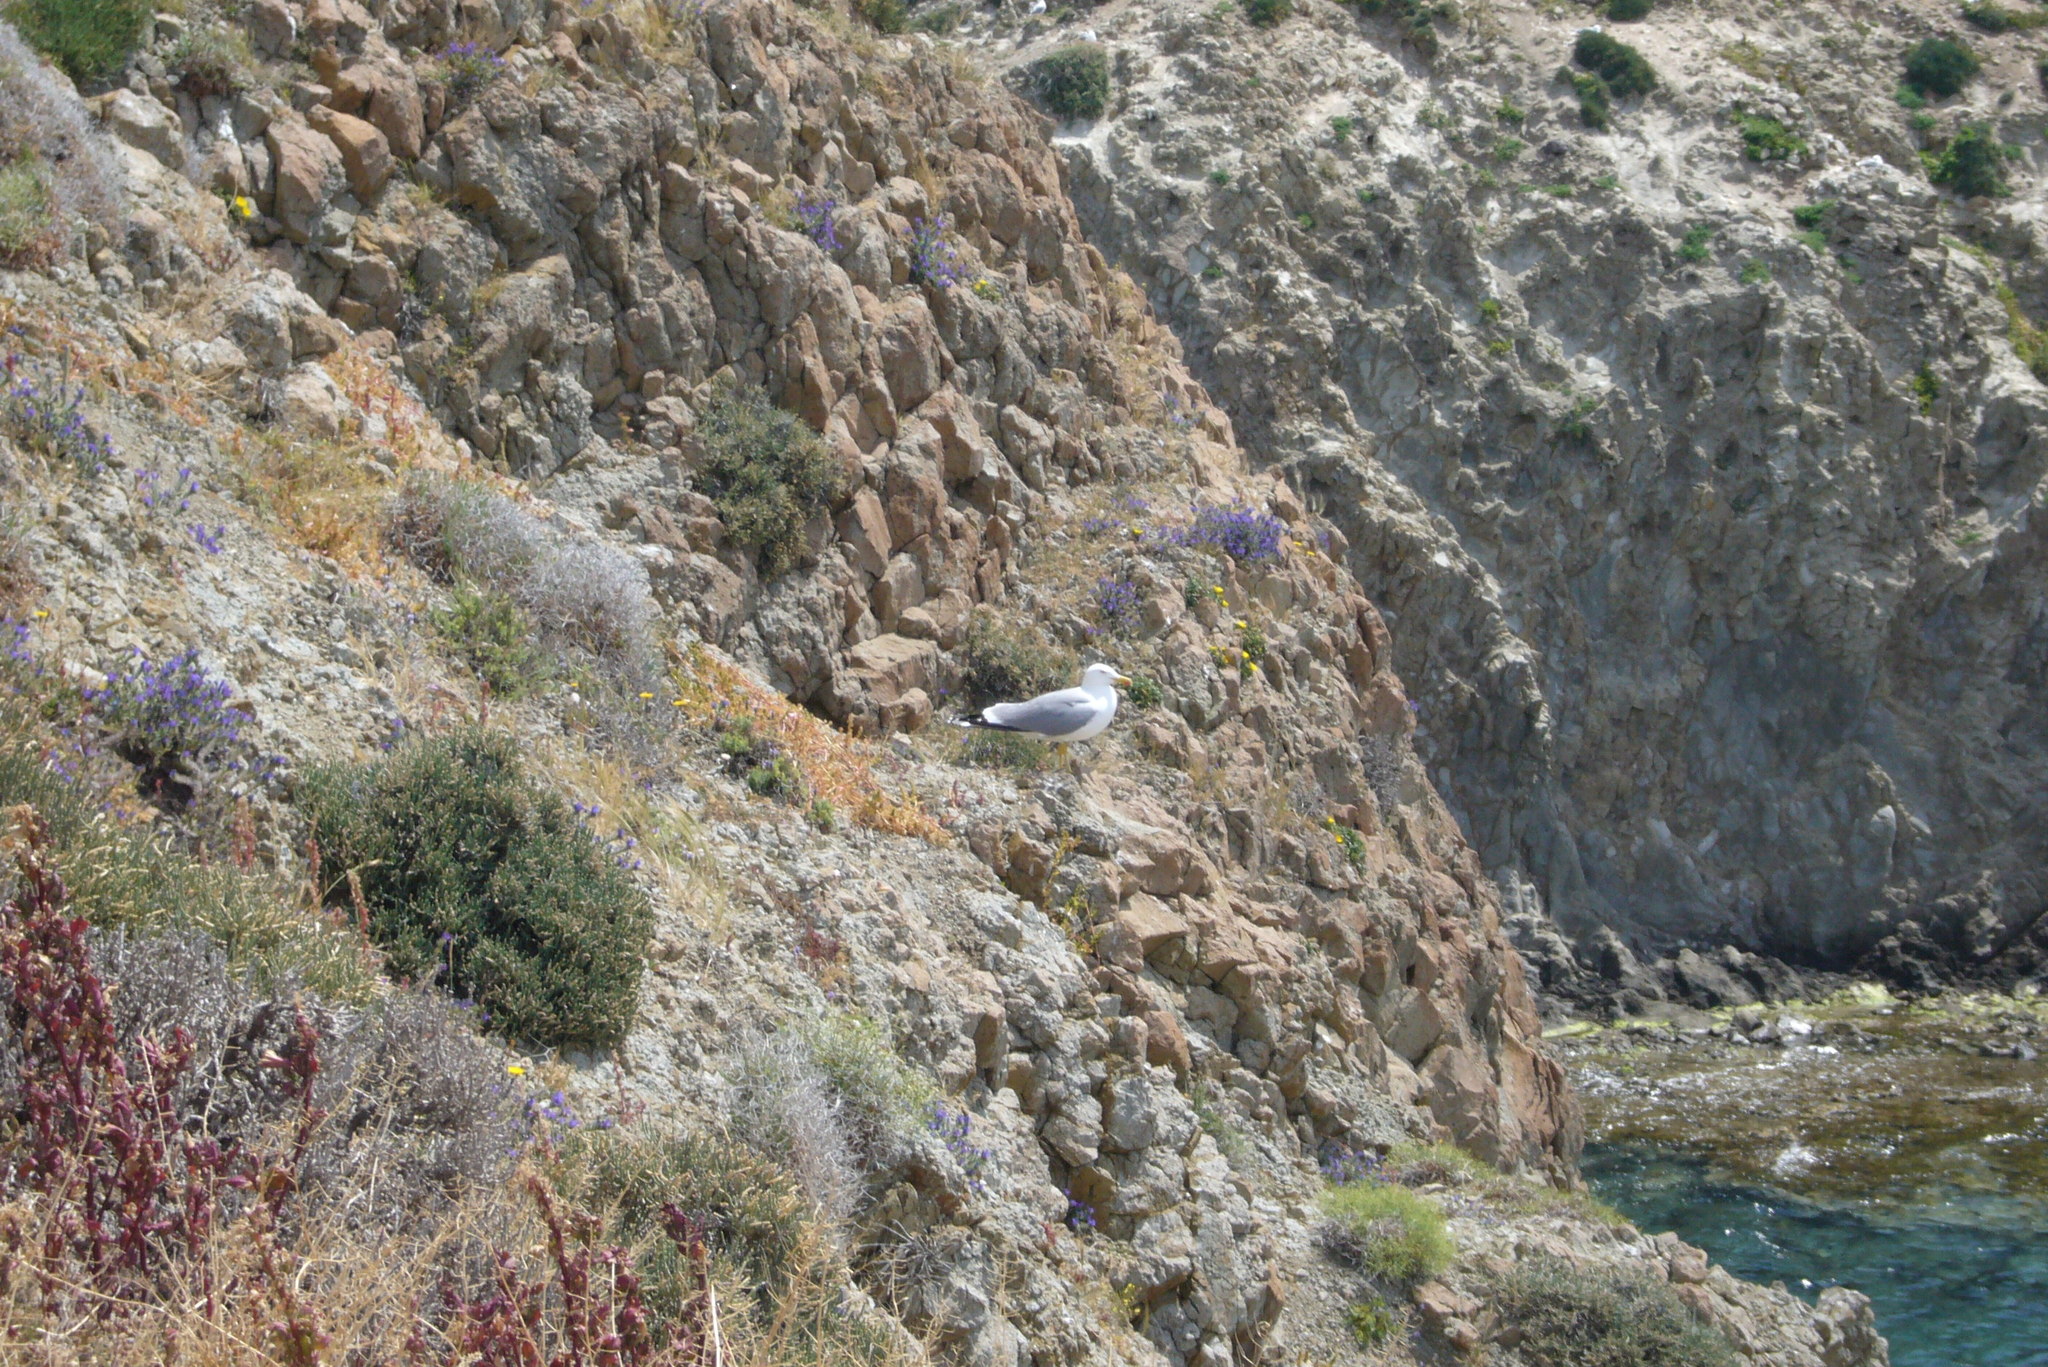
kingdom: Animalia
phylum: Chordata
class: Aves
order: Charadriiformes
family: Laridae
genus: Larus
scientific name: Larus michahellis
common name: Yellow-legged gull
